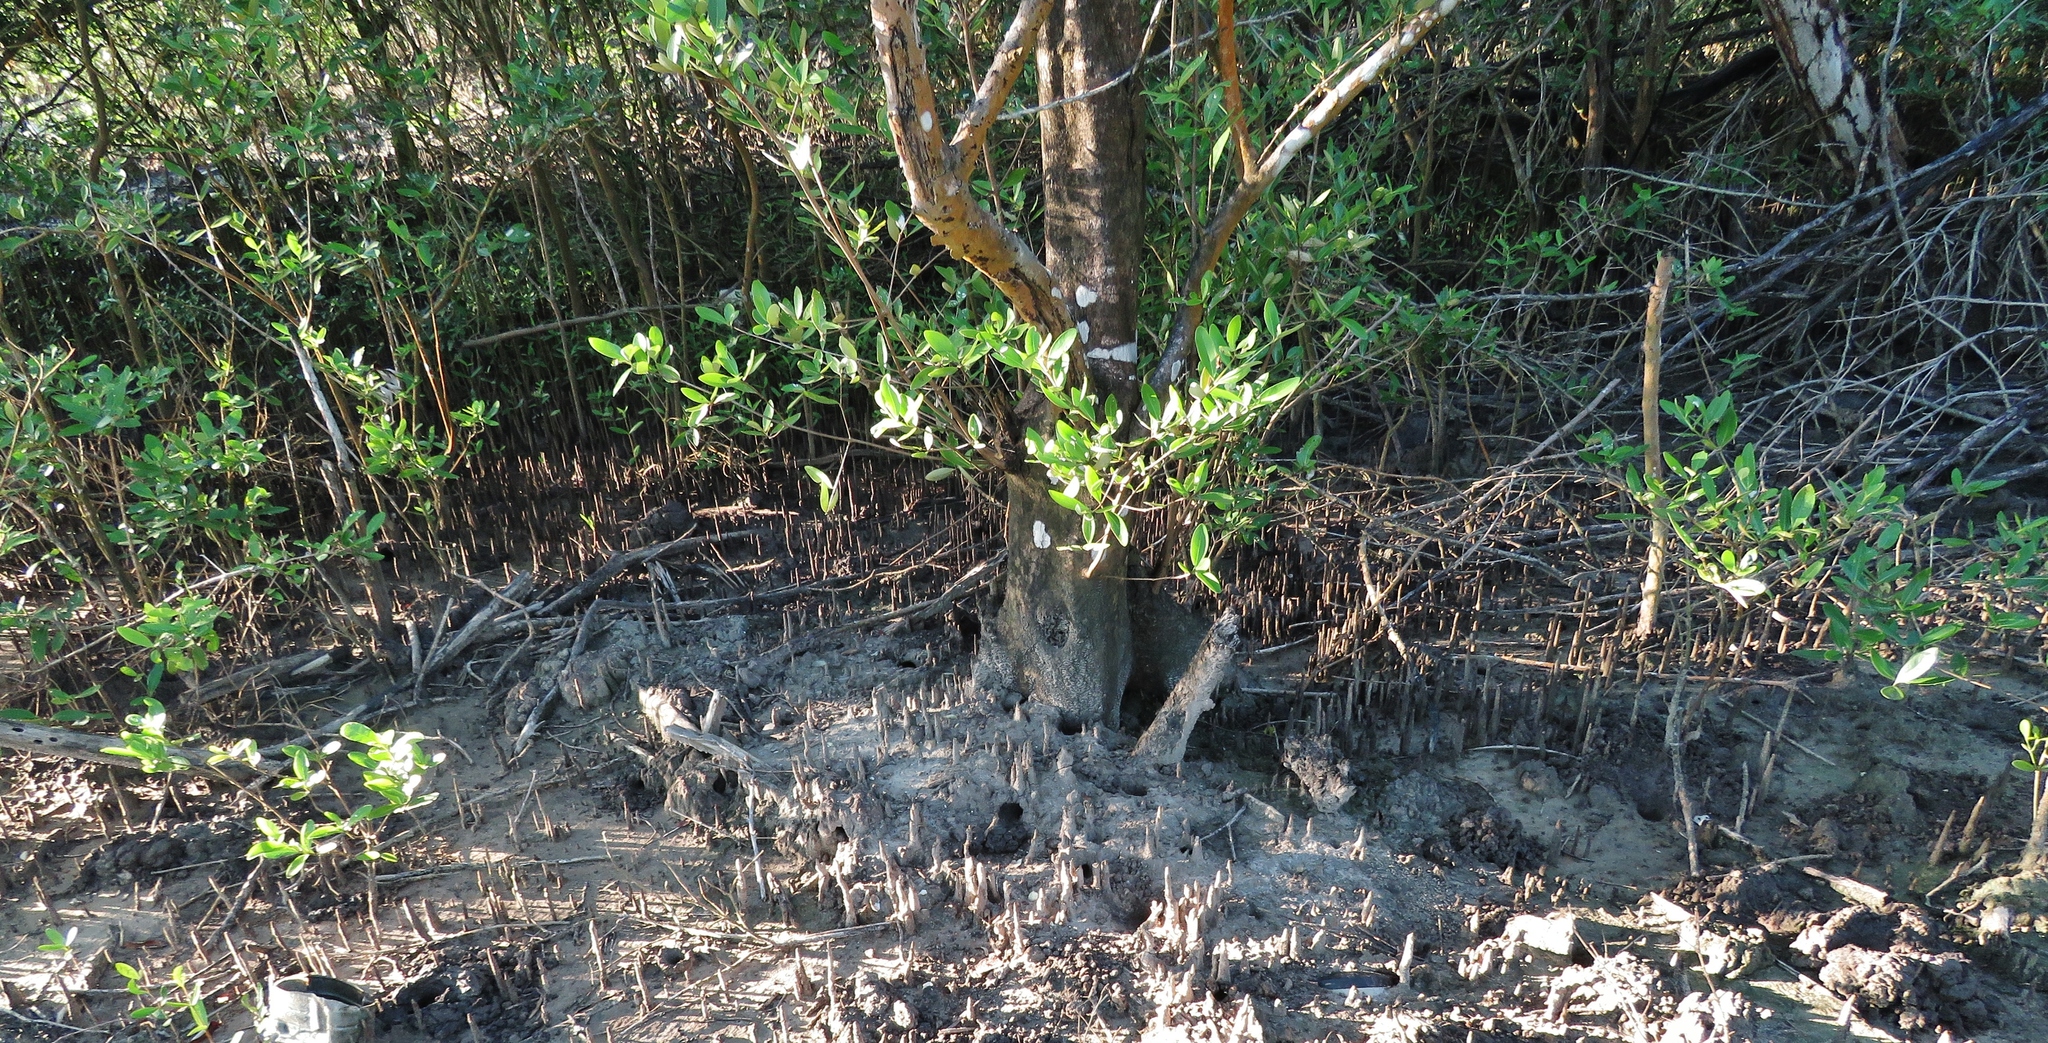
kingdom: Plantae
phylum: Tracheophyta
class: Magnoliopsida
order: Lamiales
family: Acanthaceae
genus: Avicennia
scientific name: Avicennia germinans
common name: Black mangrove
